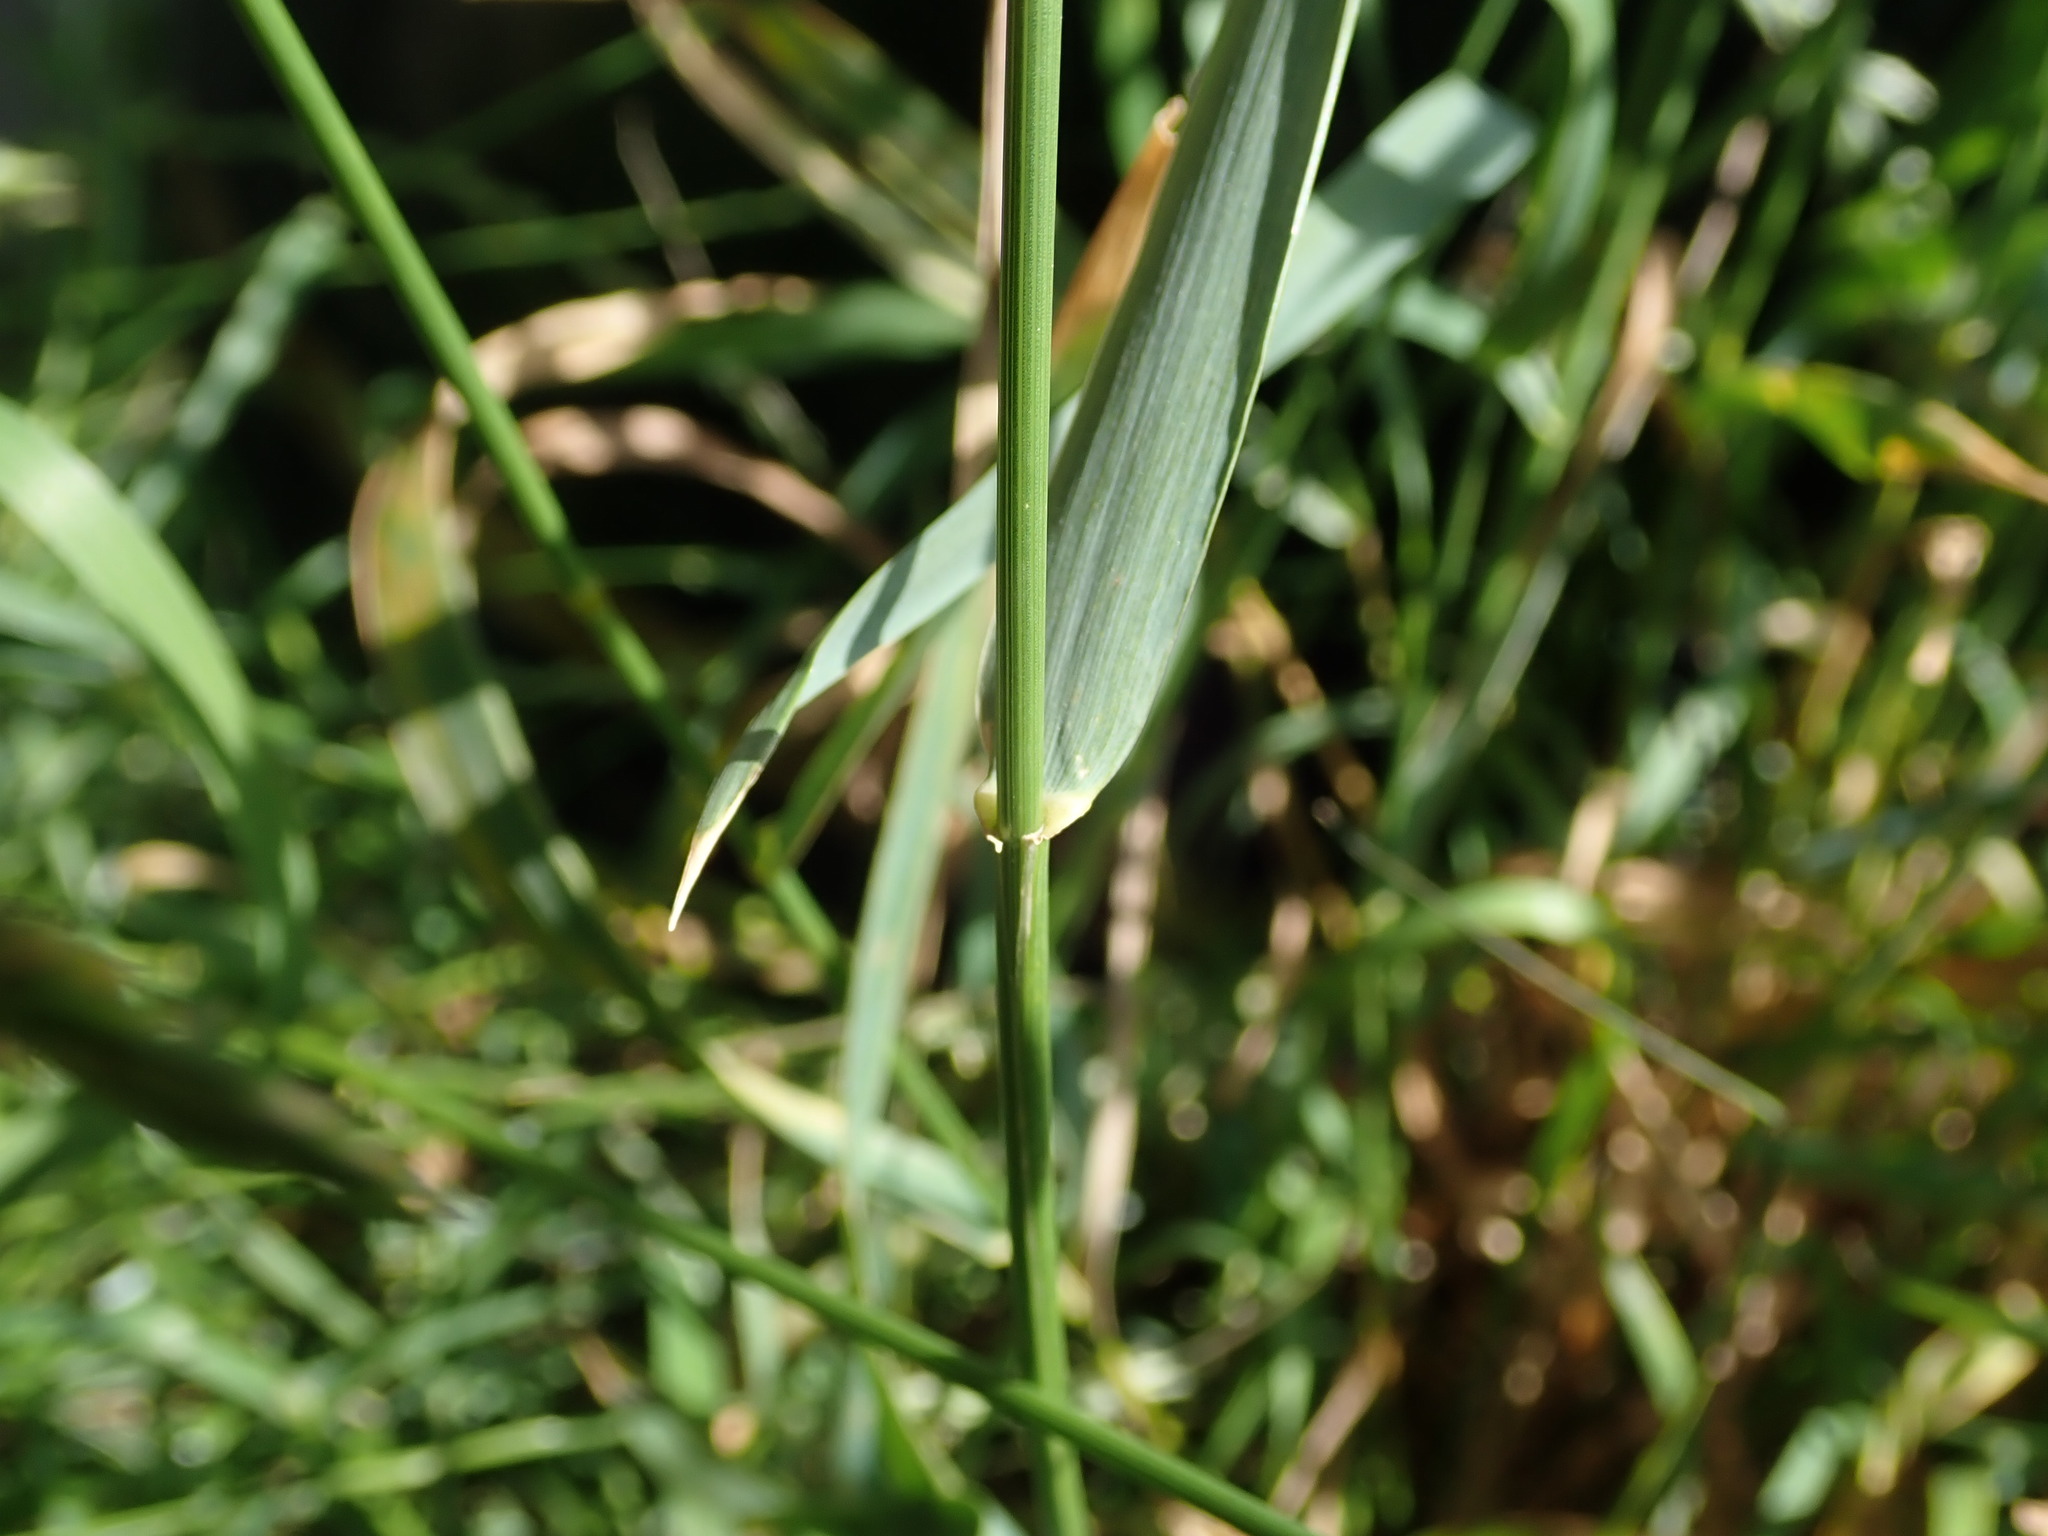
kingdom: Plantae
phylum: Tracheophyta
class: Liliopsida
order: Poales
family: Poaceae
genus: Elymus
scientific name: Elymus repens
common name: Quackgrass
